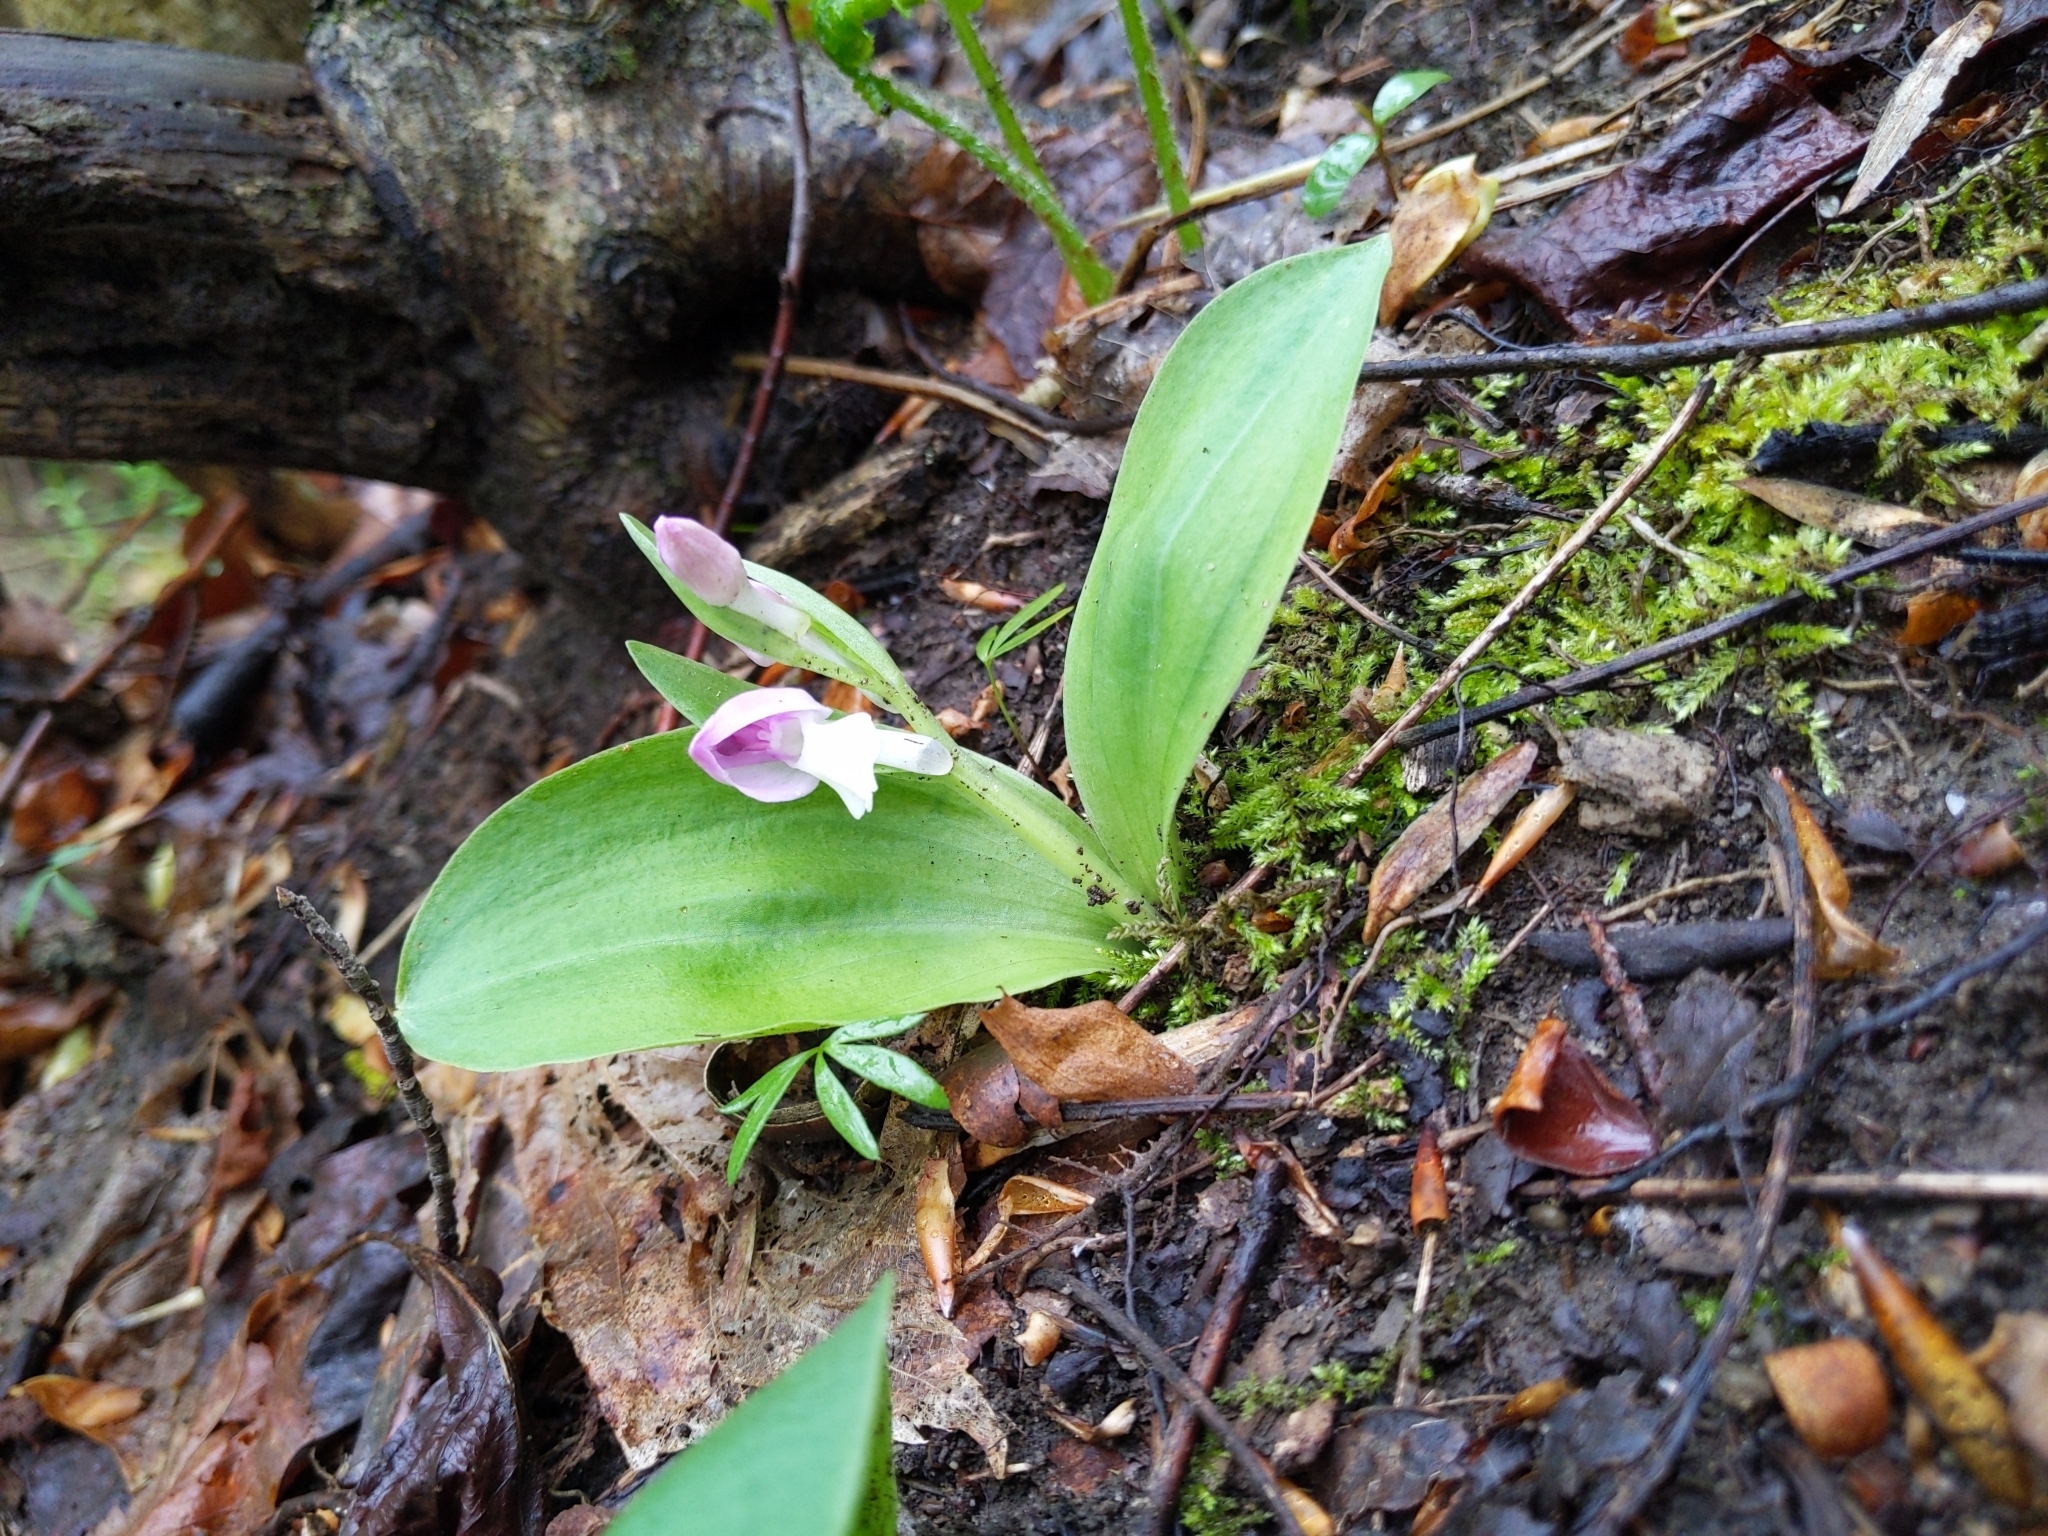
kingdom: Plantae
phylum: Tracheophyta
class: Liliopsida
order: Asparagales
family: Orchidaceae
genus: Galearis
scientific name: Galearis spectabilis
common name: Purple-hooded orchis
